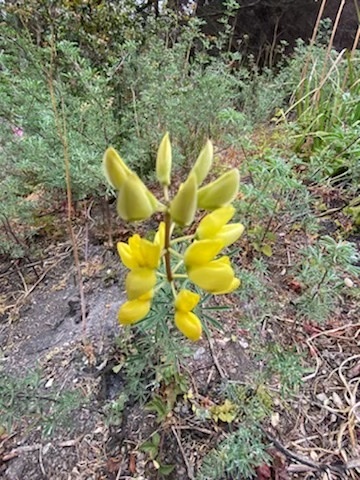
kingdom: Plantae
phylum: Tracheophyta
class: Magnoliopsida
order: Fabales
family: Fabaceae
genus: Lupinus
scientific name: Lupinus arboreus
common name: Yellow bush lupine
